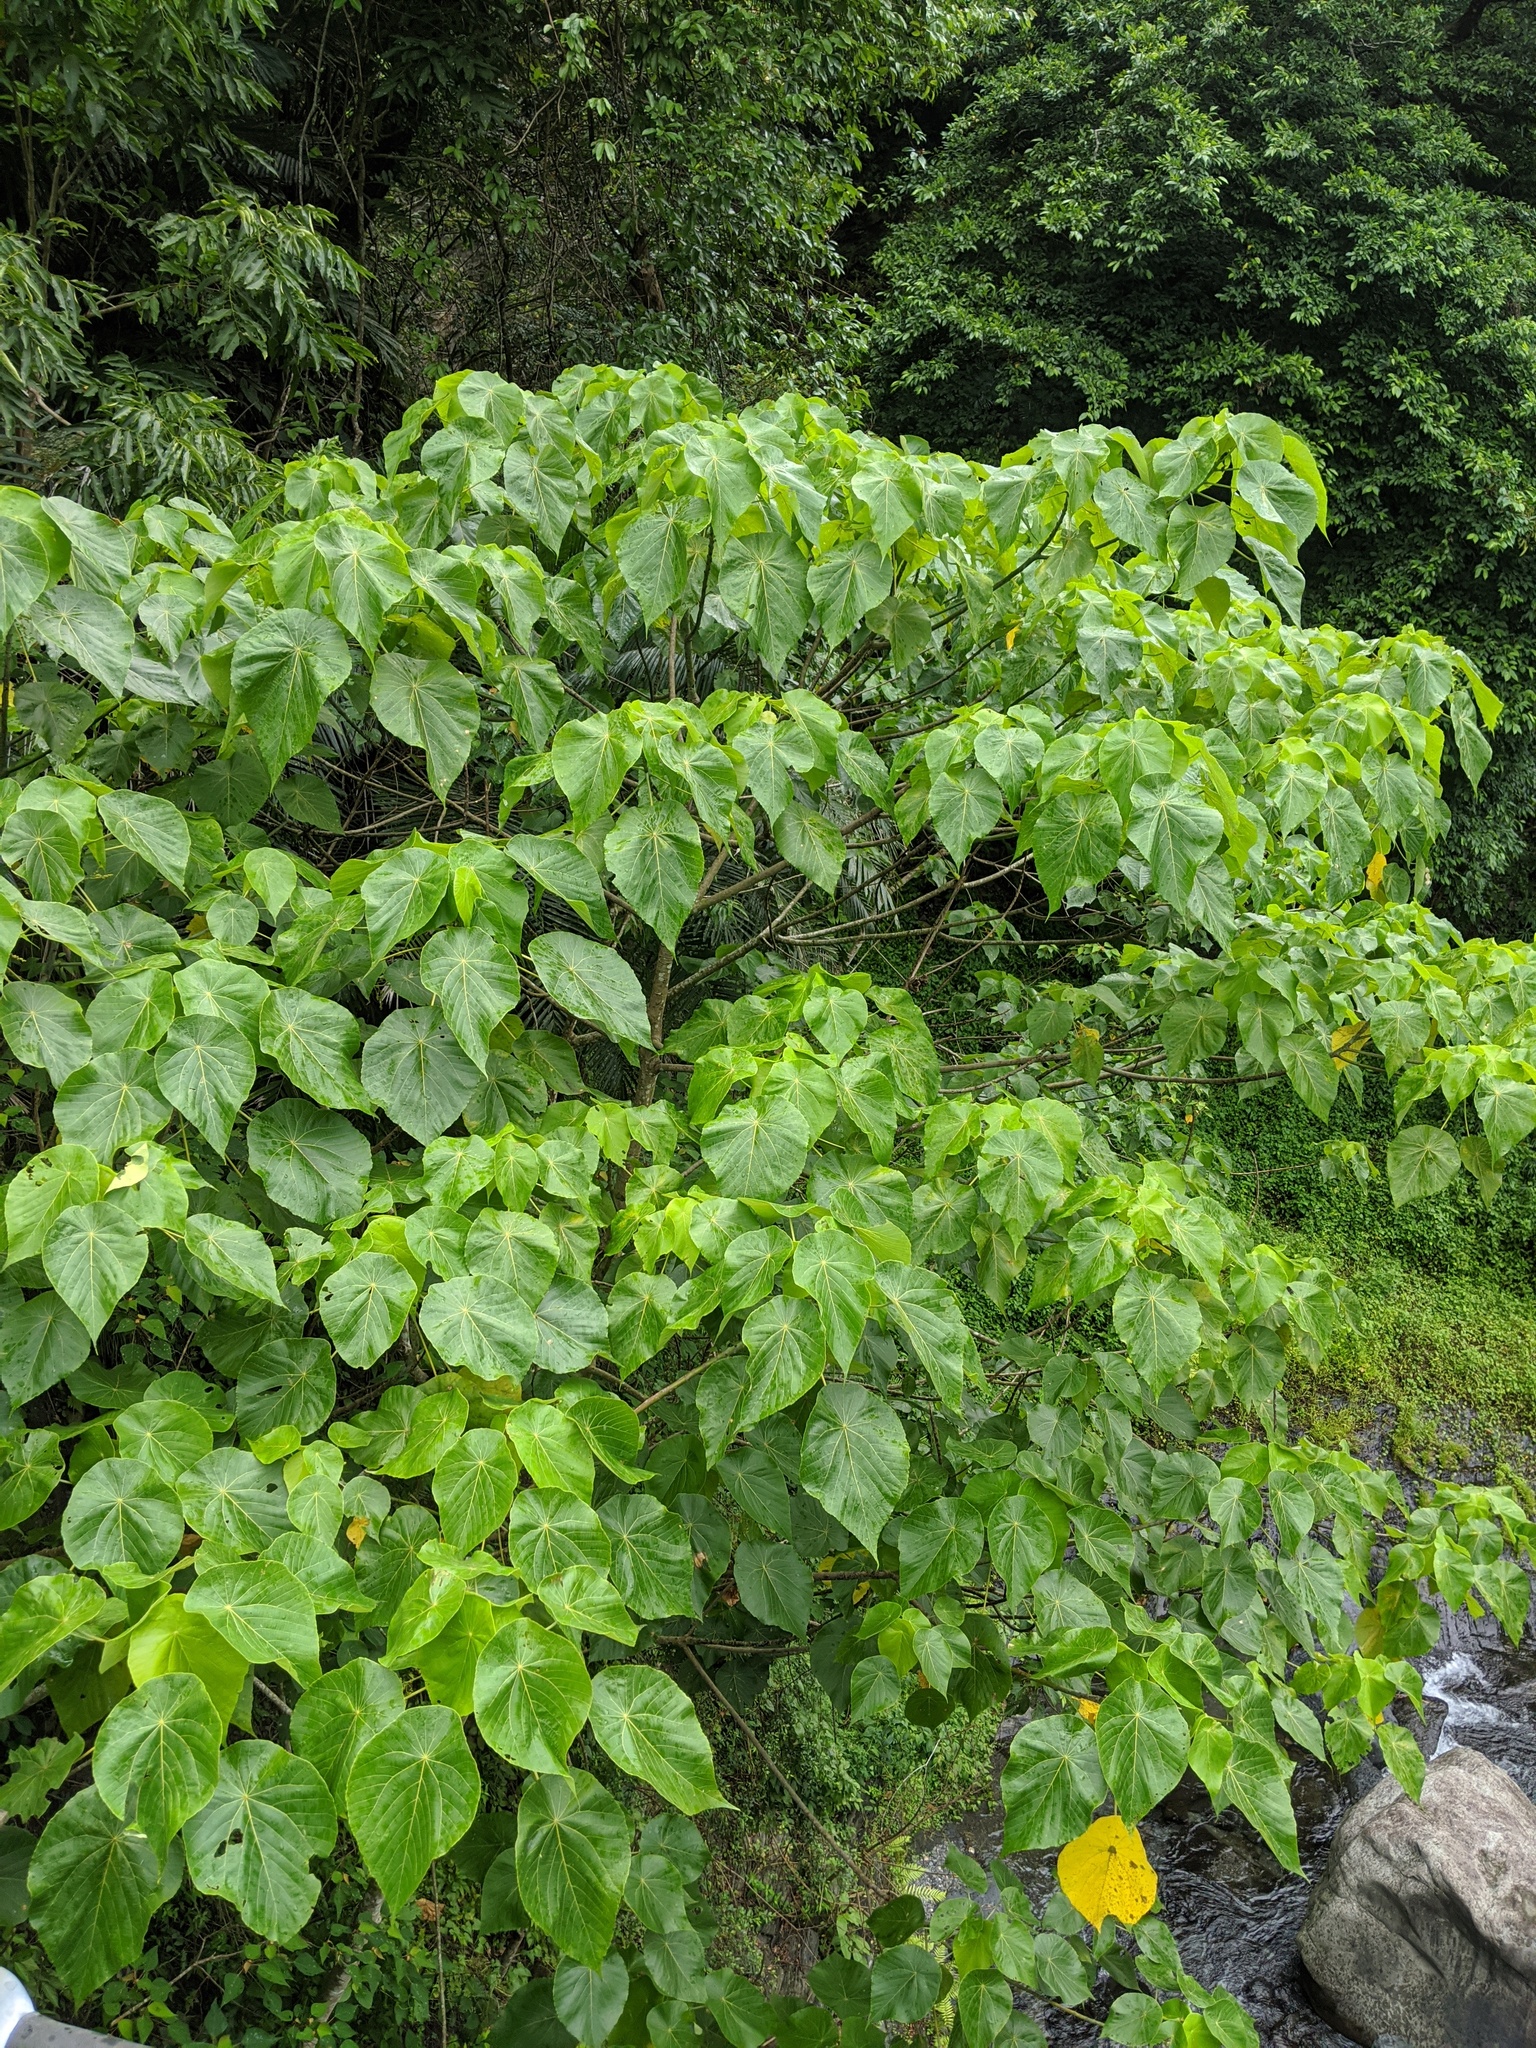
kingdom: Plantae
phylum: Tracheophyta
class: Magnoliopsida
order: Malpighiales
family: Euphorbiaceae
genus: Macaranga
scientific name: Macaranga tanarius
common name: Parasol leaf tree
